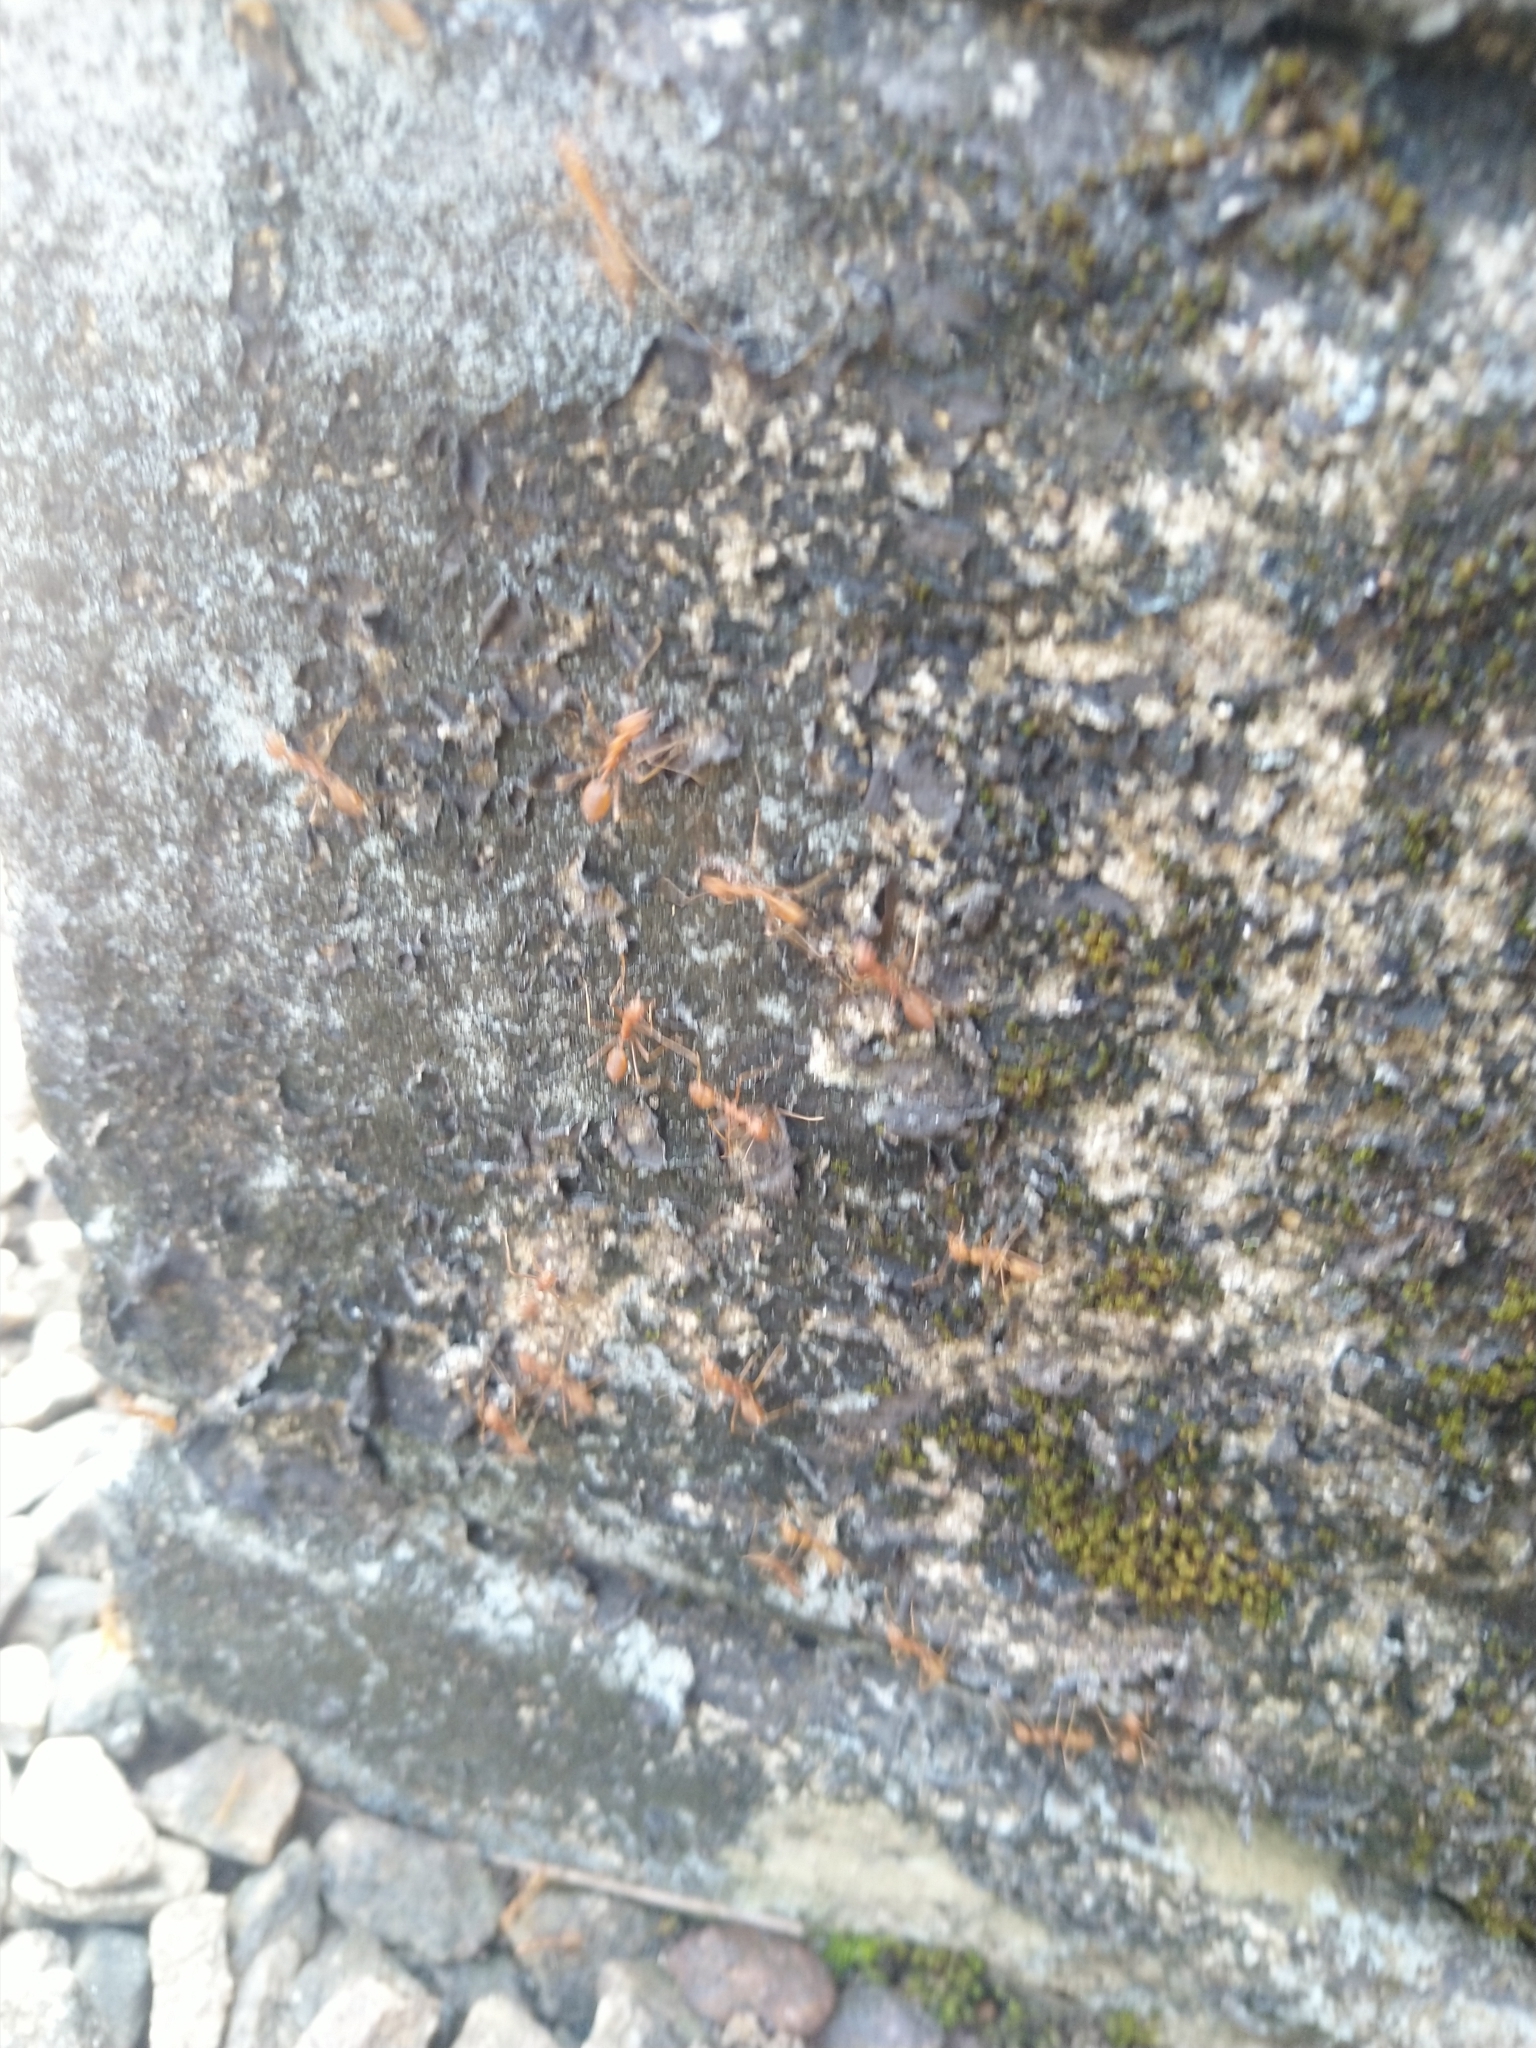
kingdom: Animalia
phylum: Arthropoda
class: Insecta
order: Hymenoptera
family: Formicidae
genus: Oecophylla
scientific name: Oecophylla smaragdina
